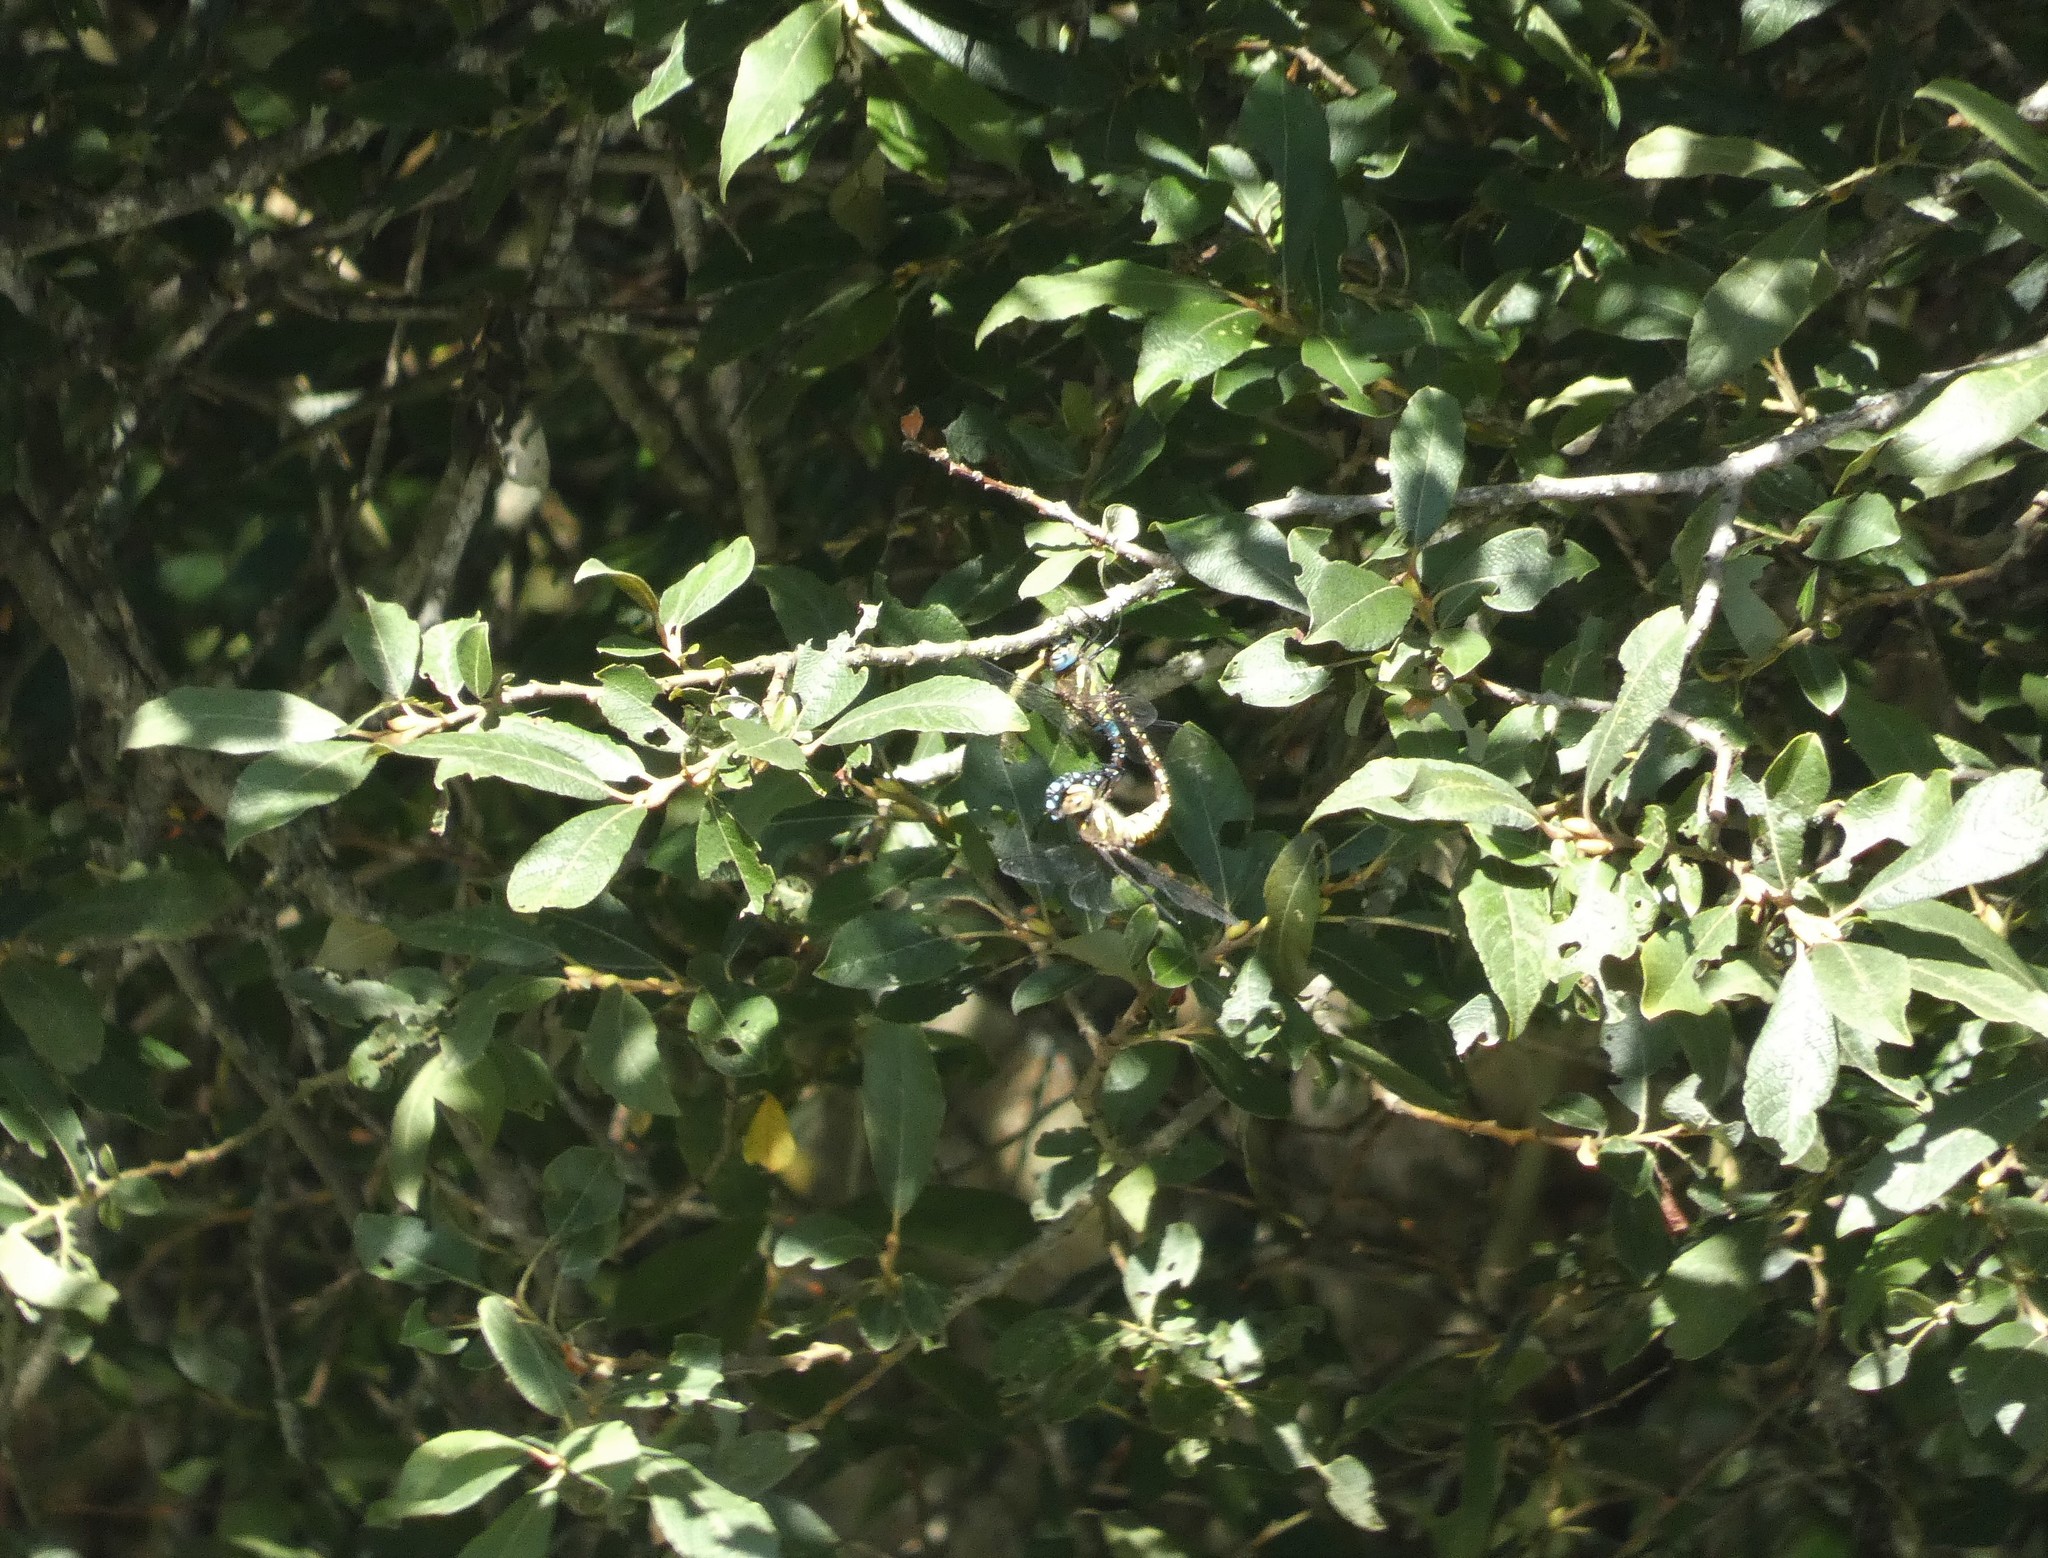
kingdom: Animalia
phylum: Arthropoda
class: Insecta
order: Odonata
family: Aeshnidae
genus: Aeshna
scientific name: Aeshna mixta
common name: Migrant hawker
